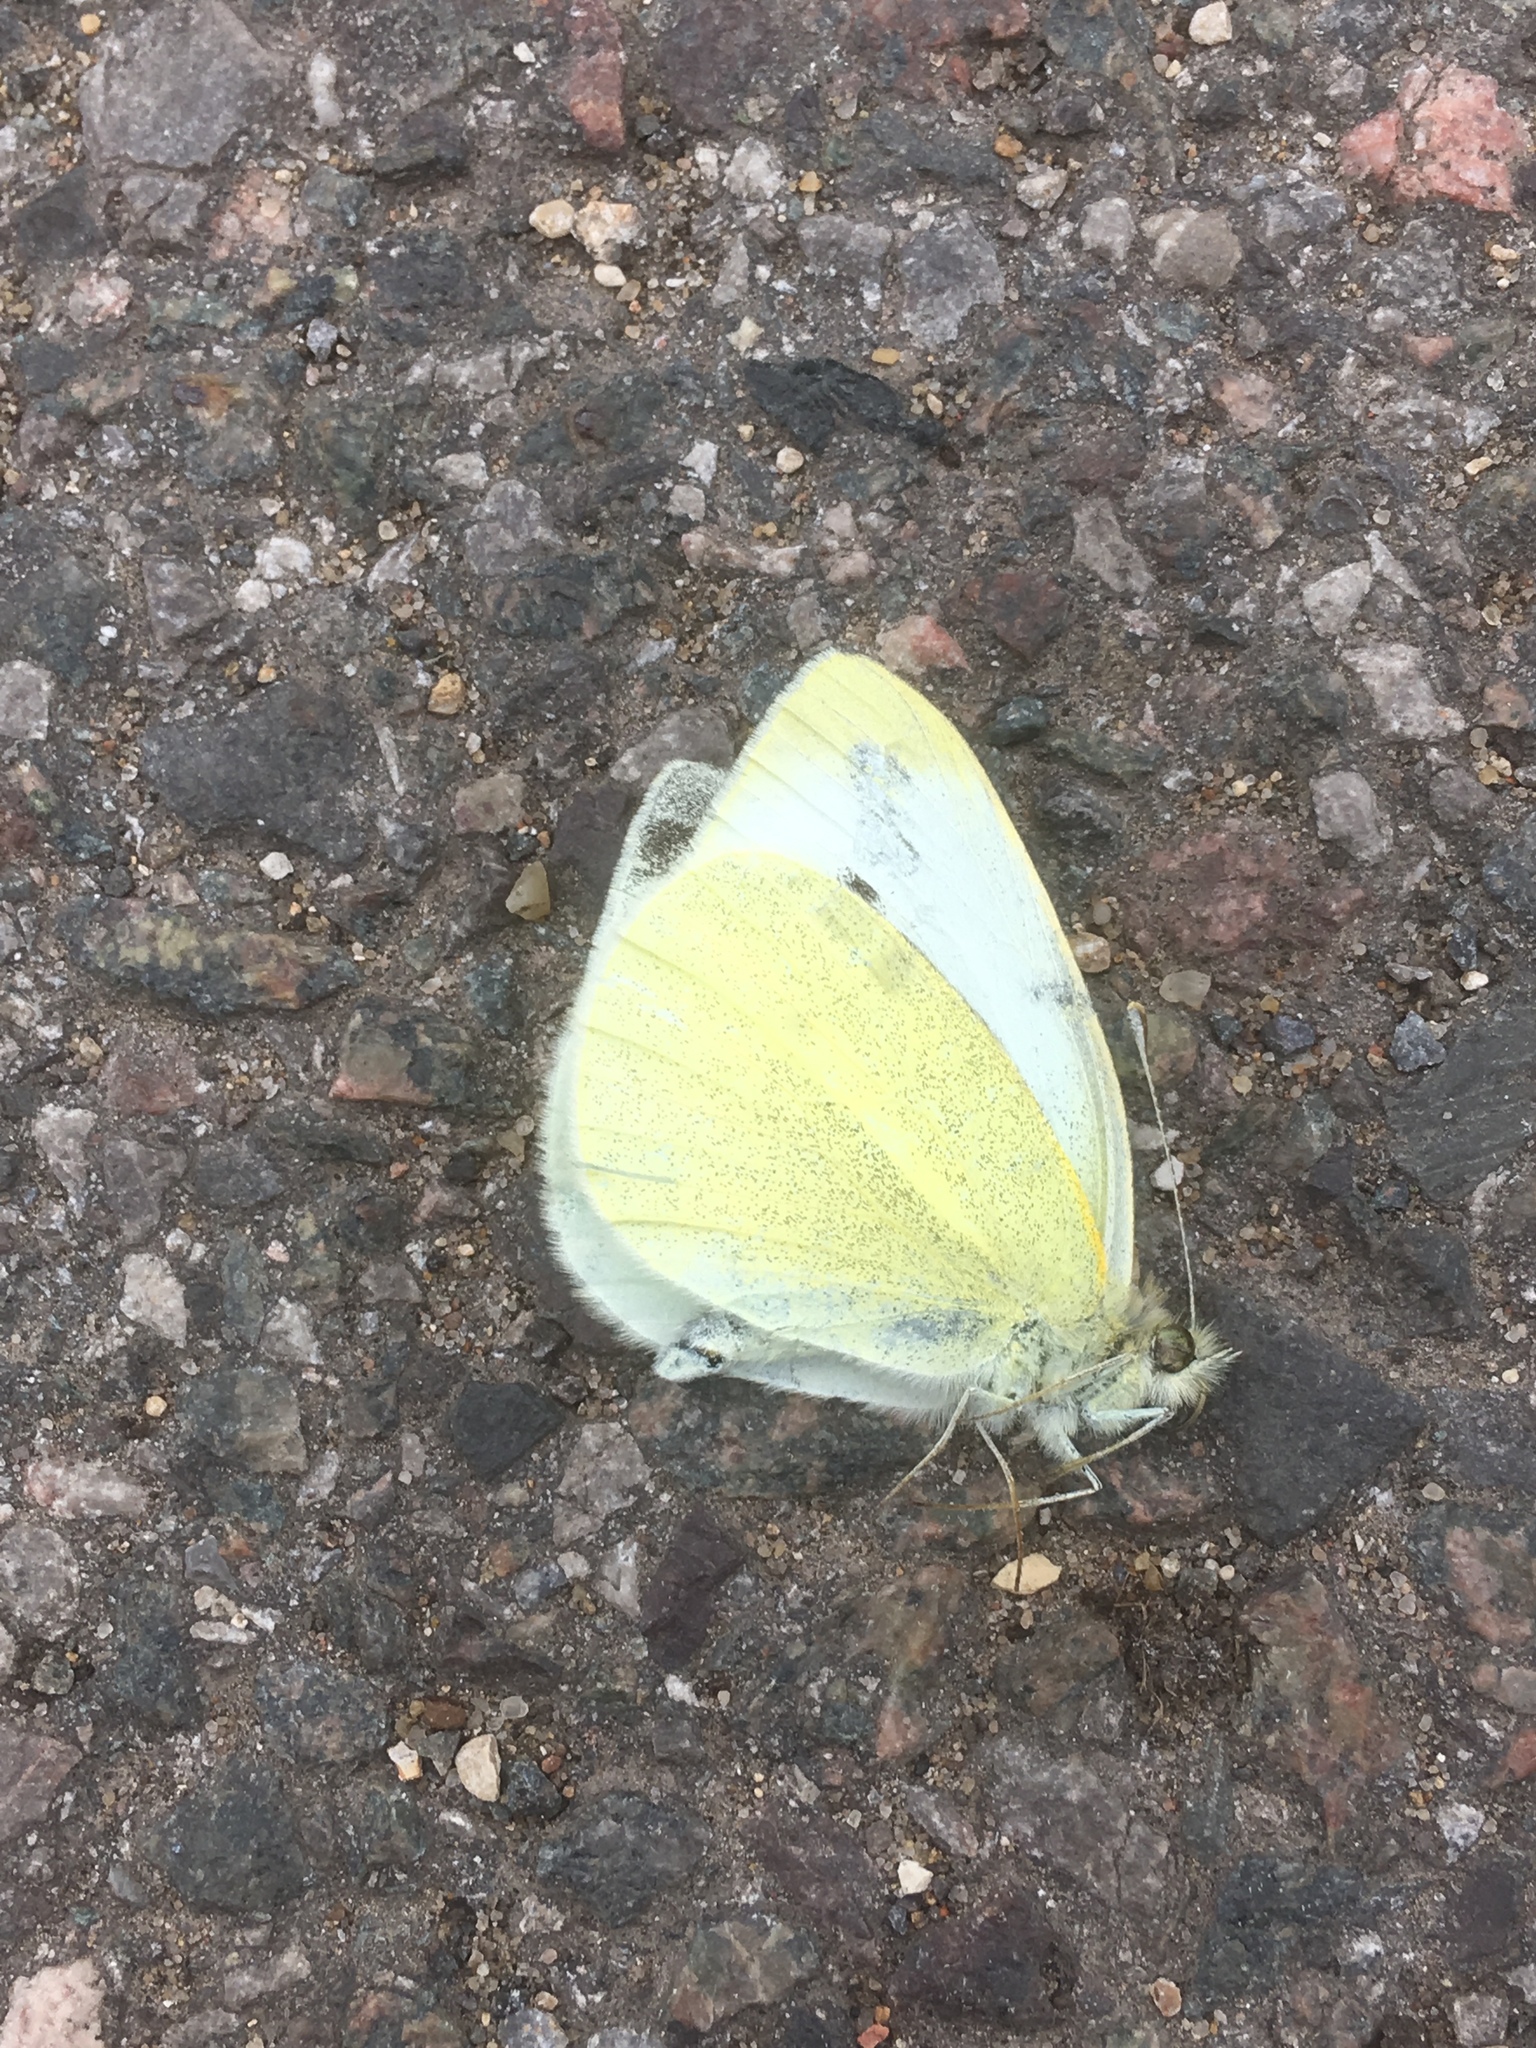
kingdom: Animalia
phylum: Arthropoda
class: Insecta
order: Lepidoptera
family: Pieridae
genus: Pieris
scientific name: Pieris rapae
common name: Small white
